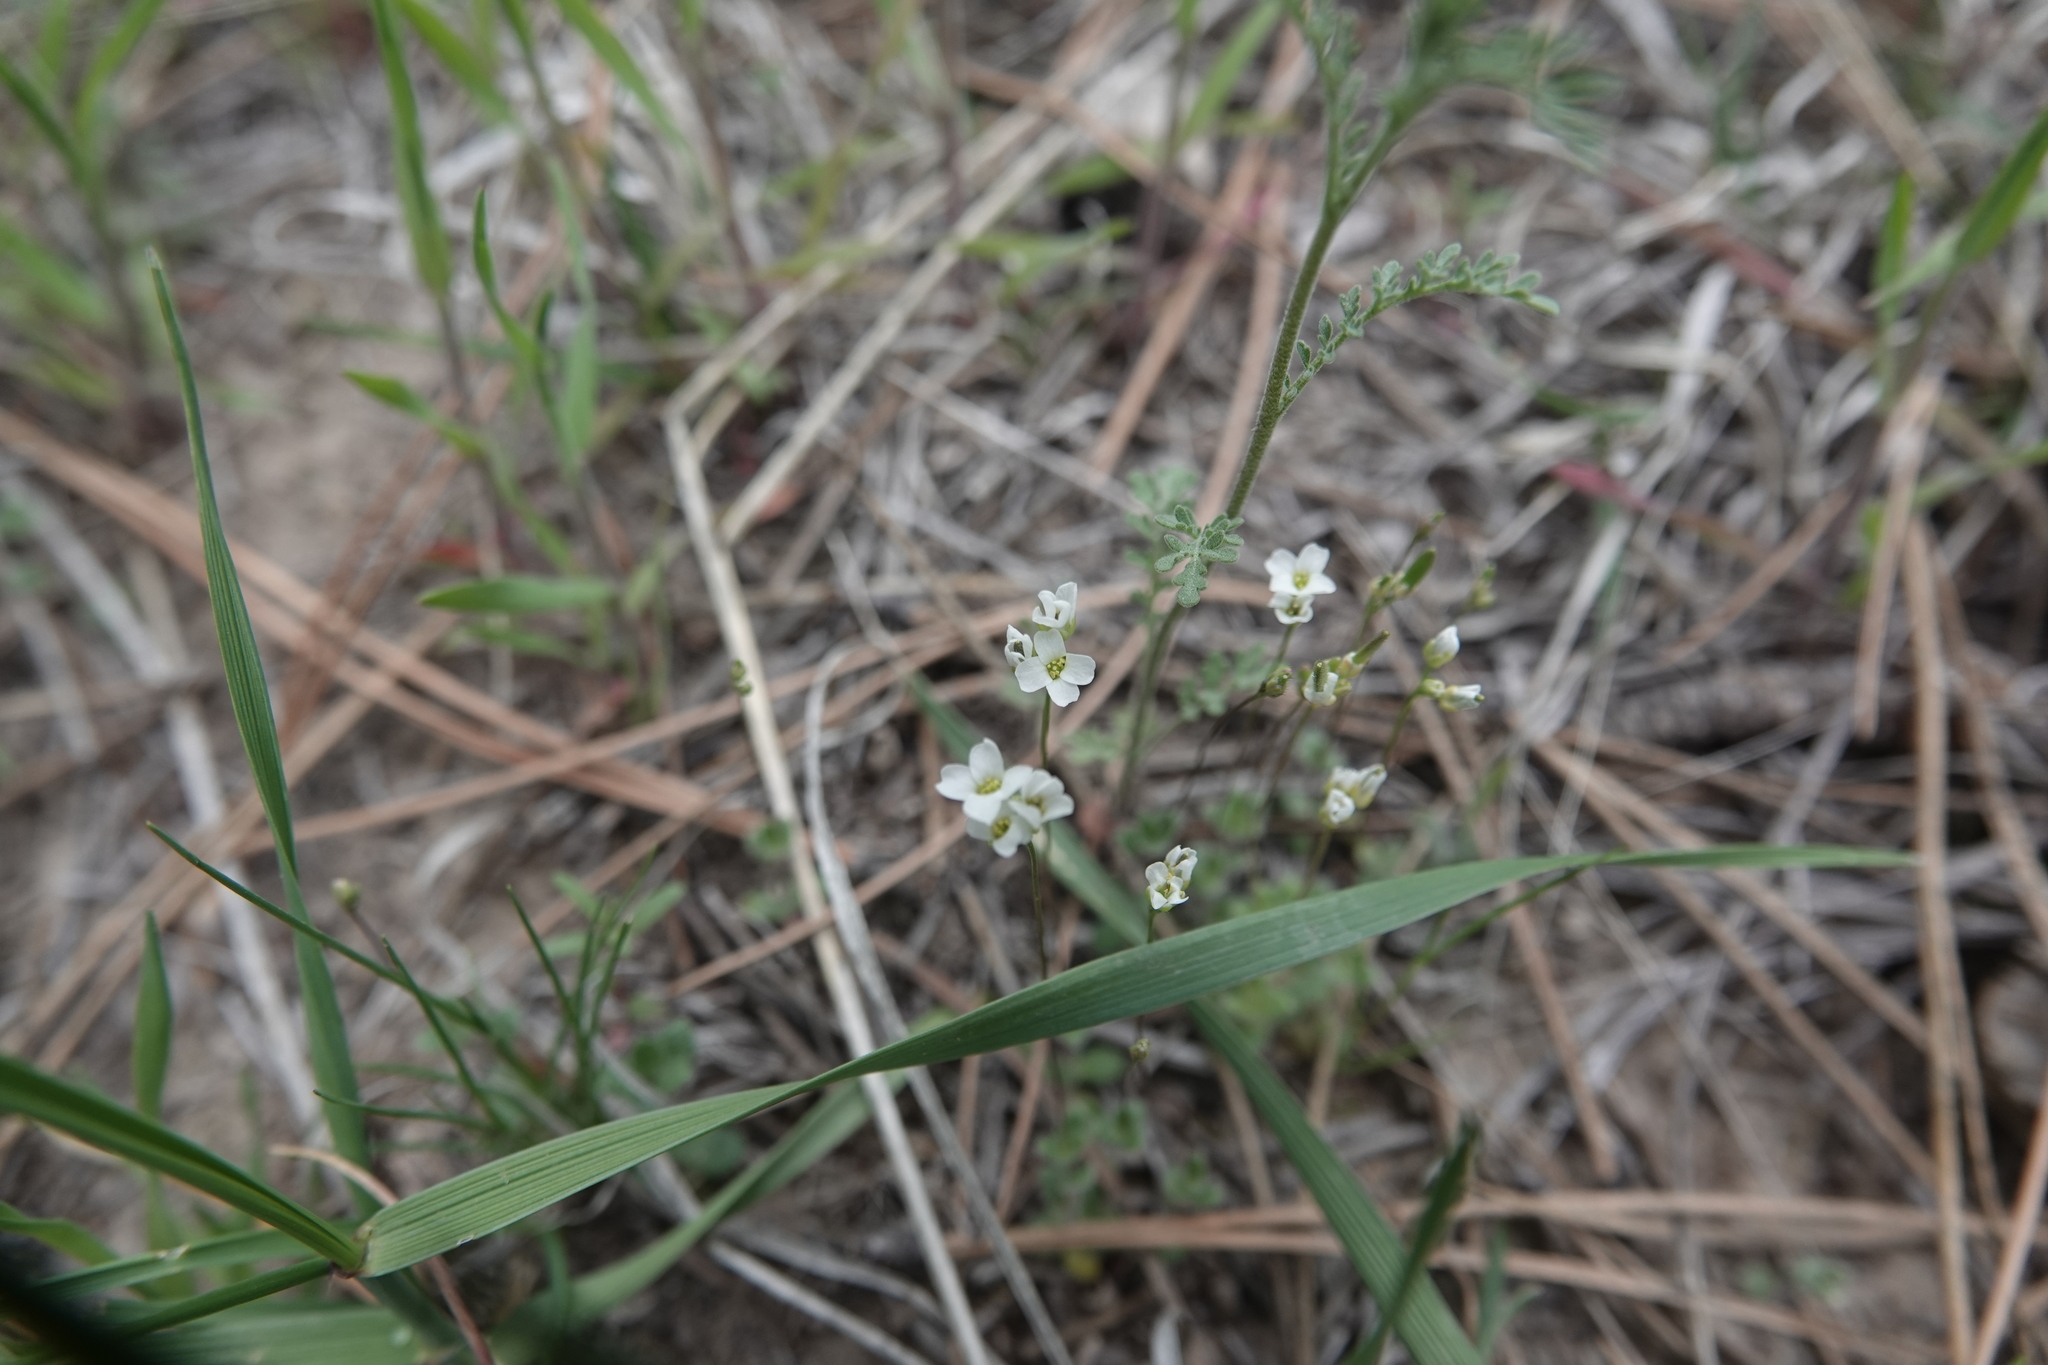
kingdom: Plantae
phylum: Tracheophyta
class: Magnoliopsida
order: Brassicales
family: Brassicaceae
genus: Tomostima
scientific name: Tomostima reptans
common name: Carolina draba
